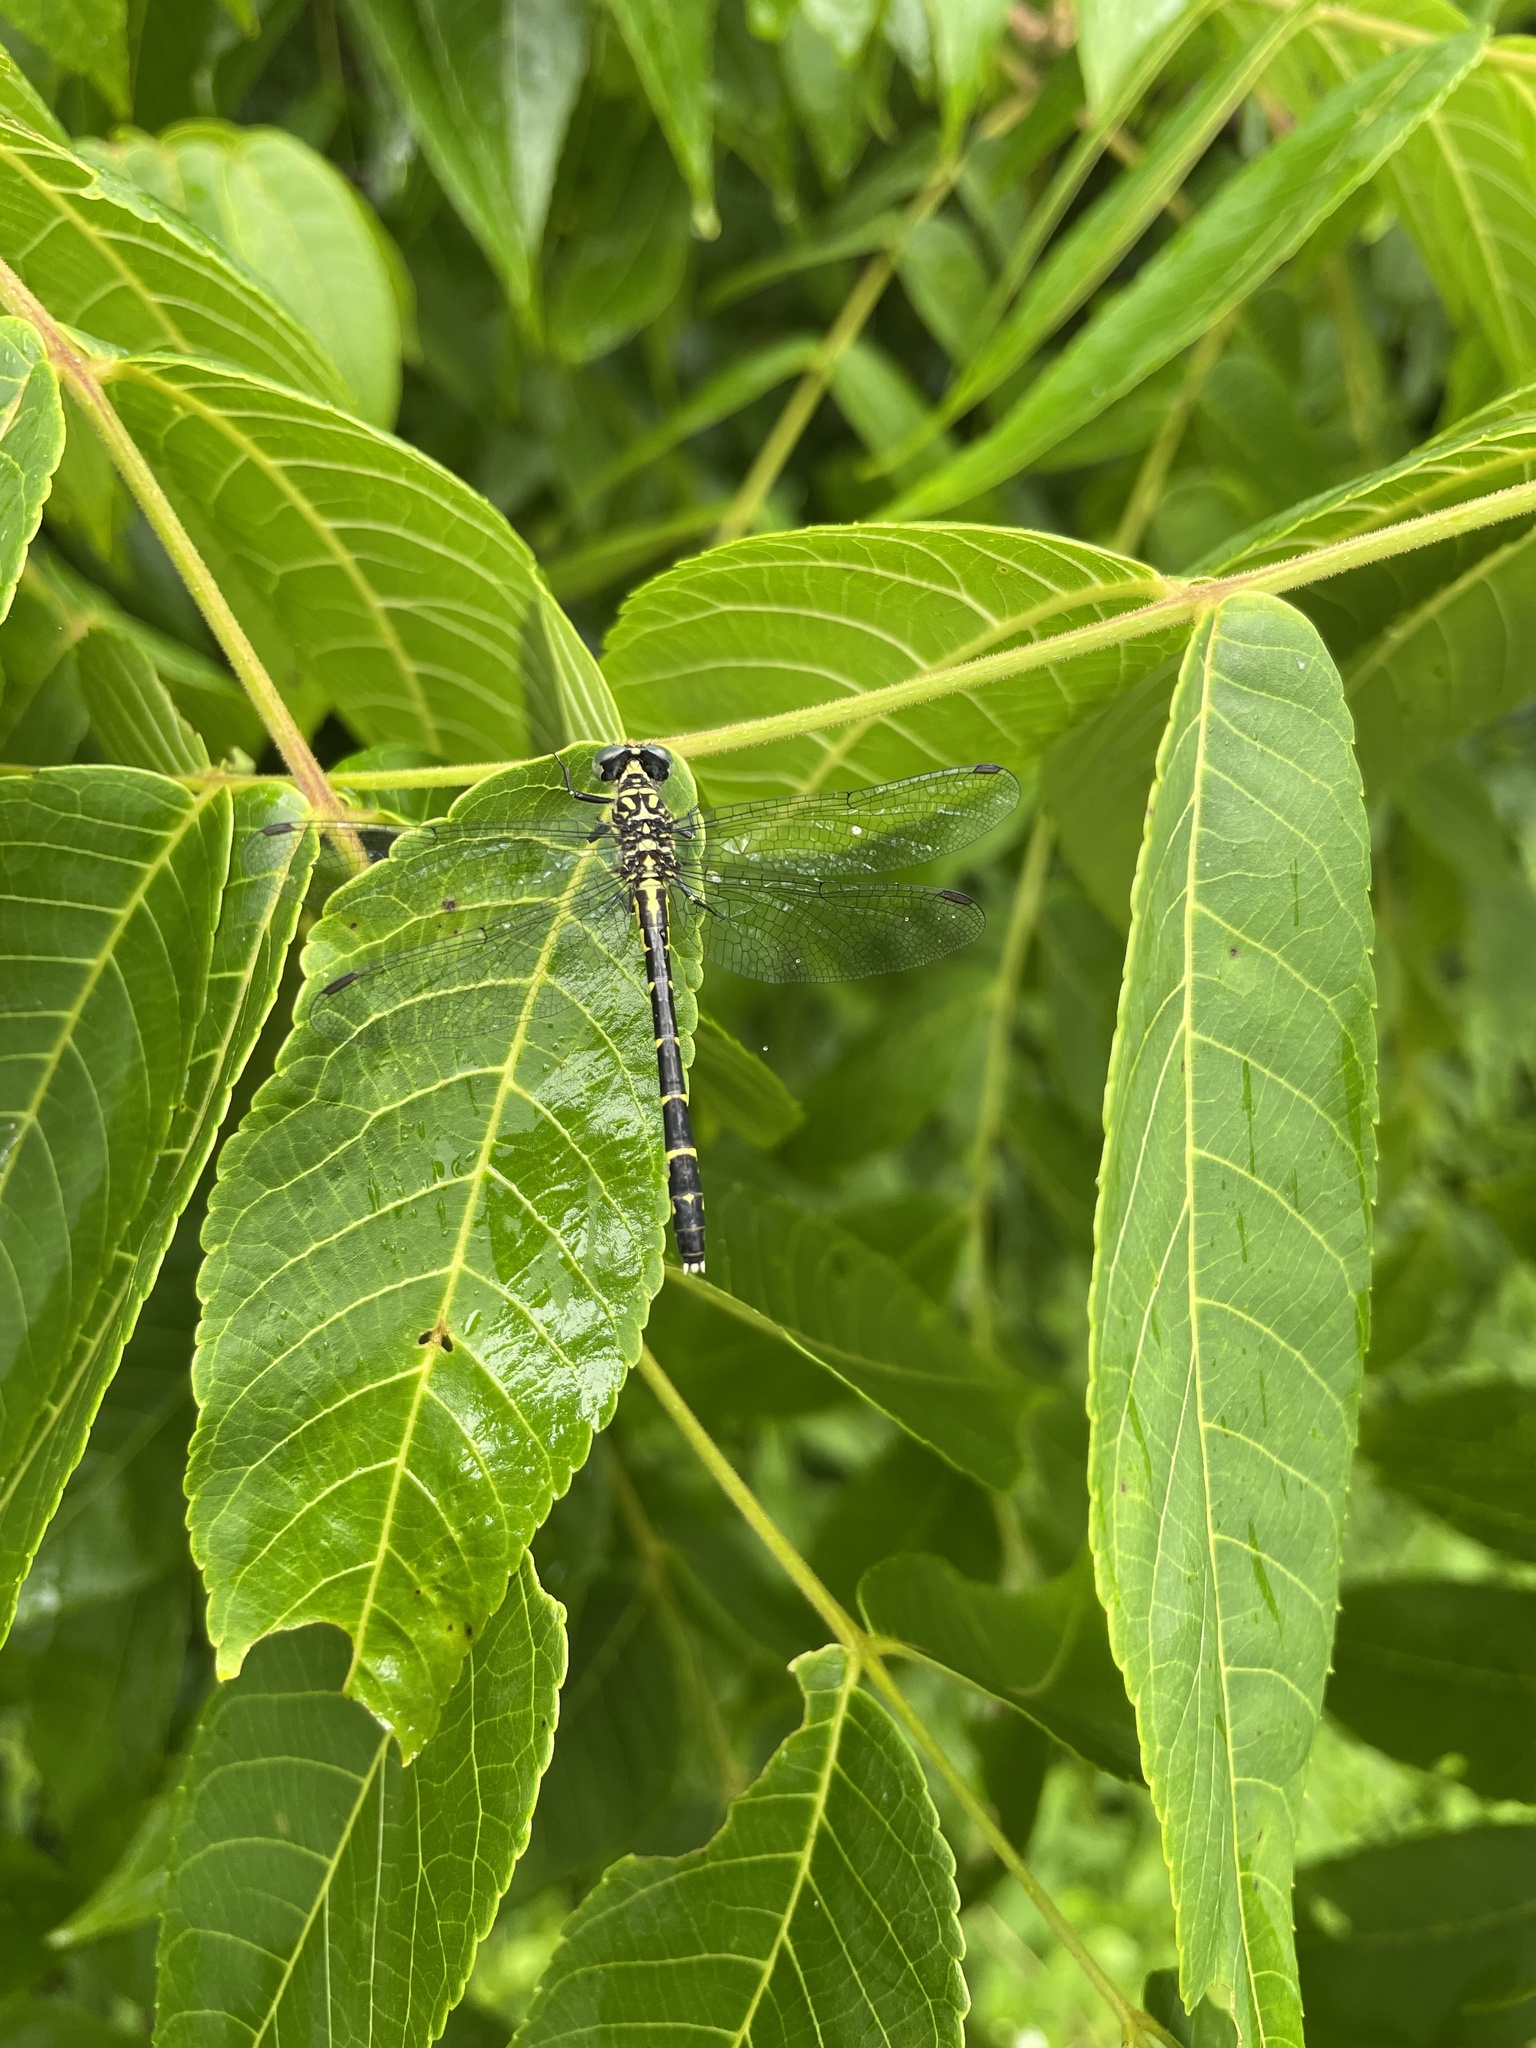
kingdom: Animalia
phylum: Arthropoda
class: Insecta
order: Odonata
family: Gomphidae
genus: Stylogomphus
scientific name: Stylogomphus albistylus
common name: Eastern least clubtail
